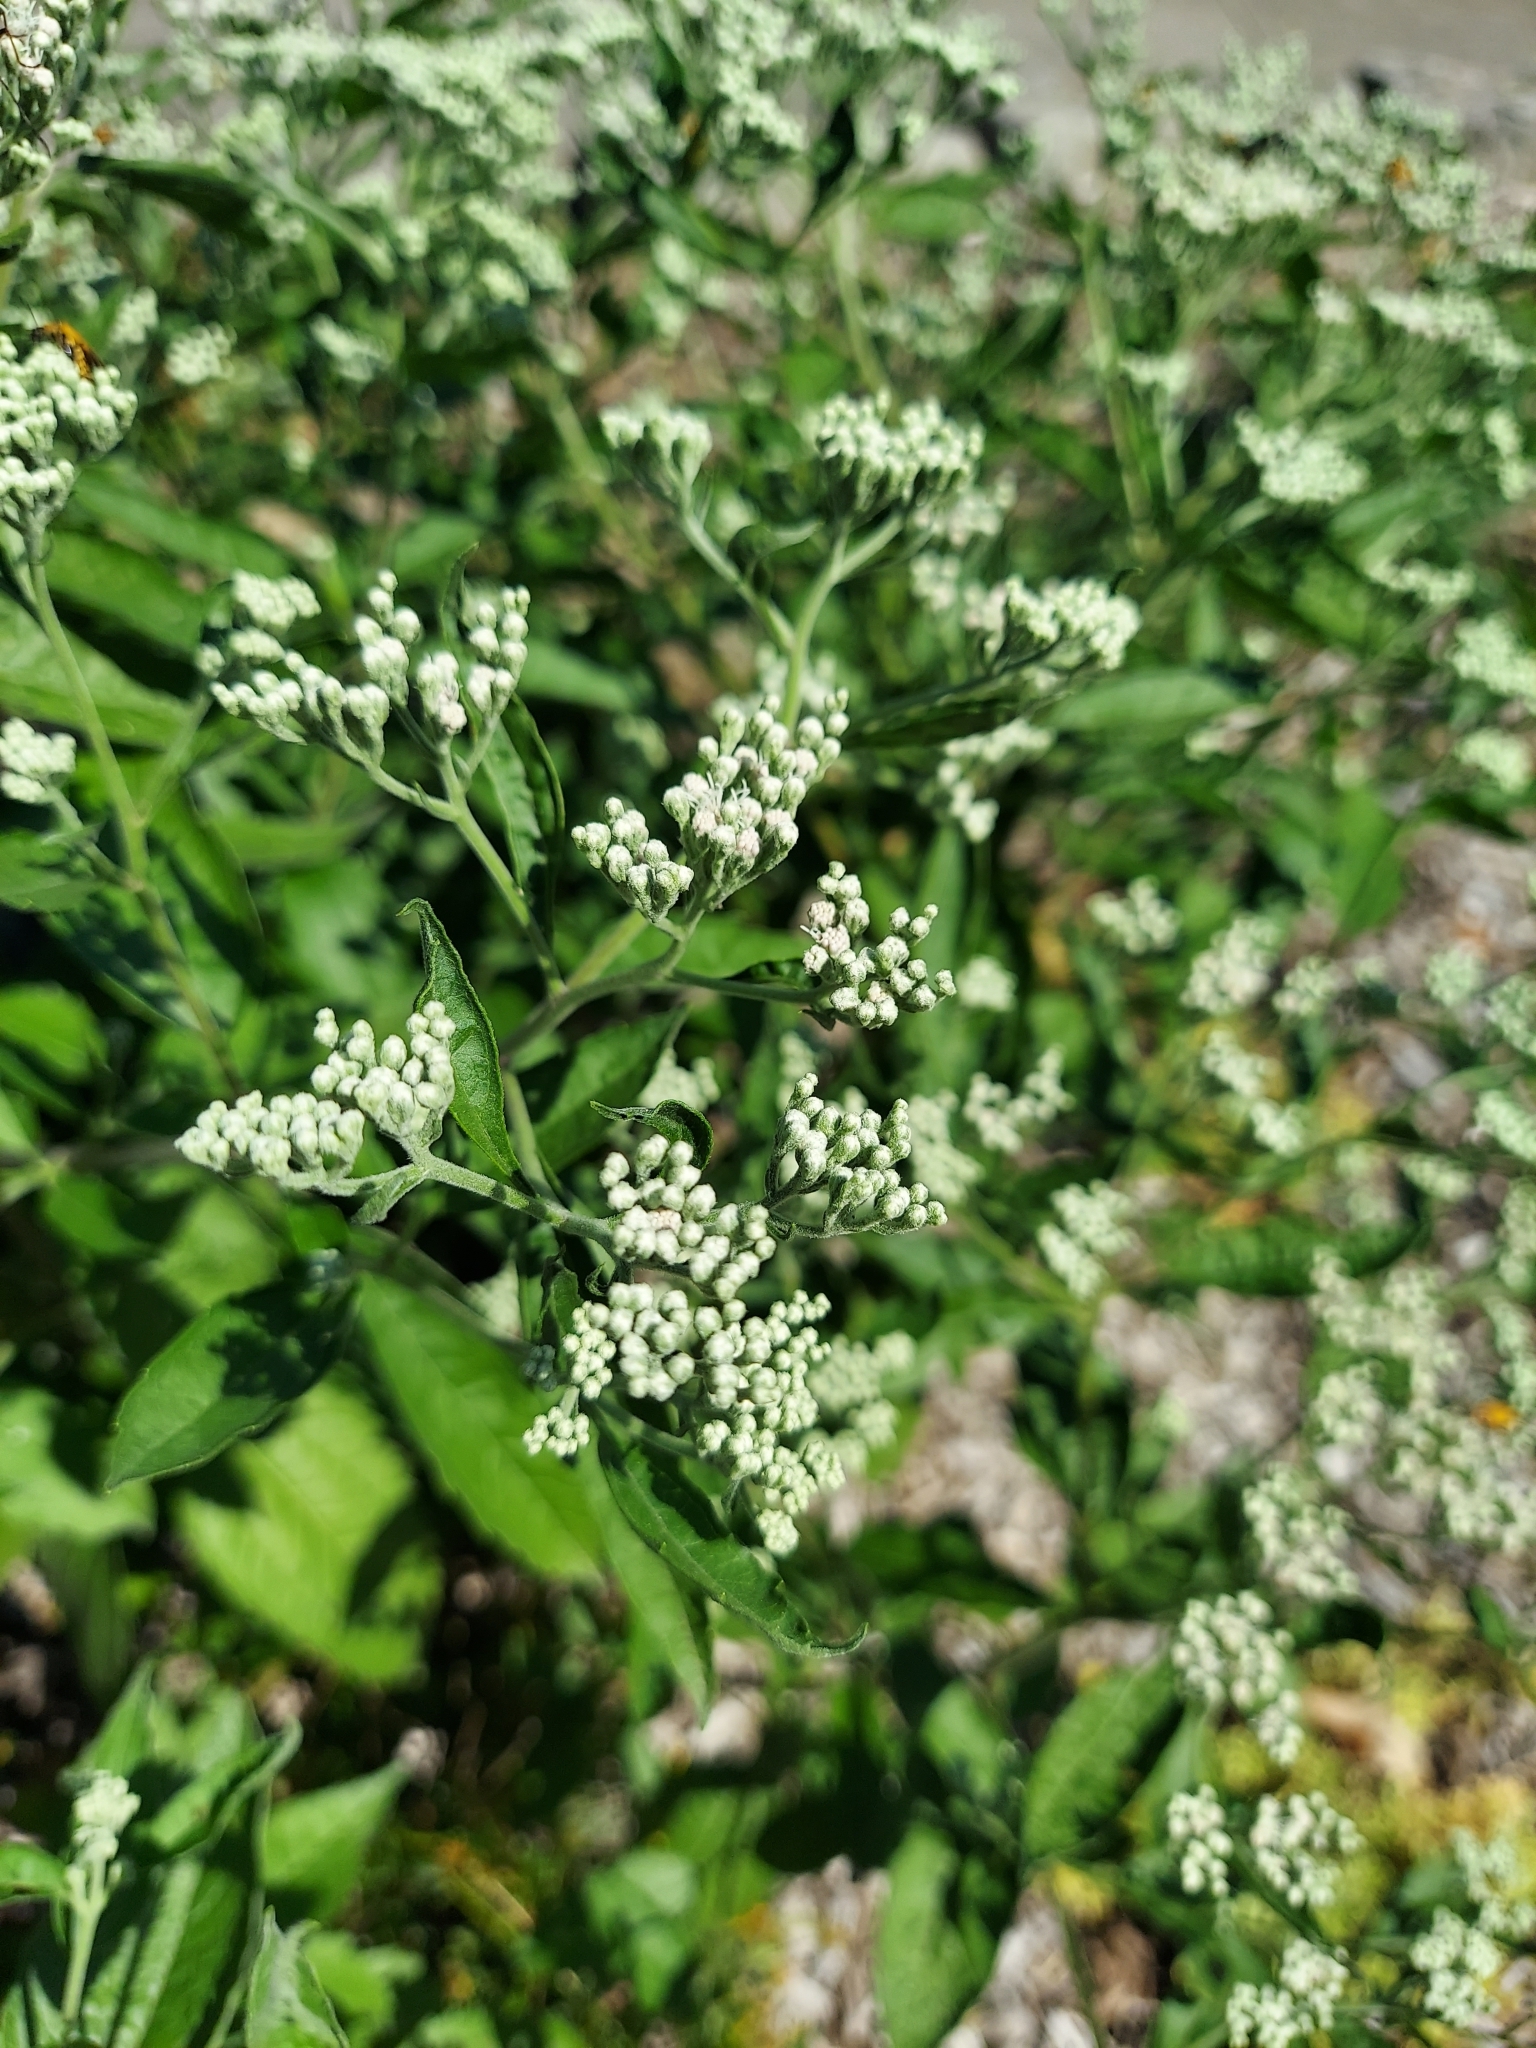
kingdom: Plantae
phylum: Tracheophyta
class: Magnoliopsida
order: Asterales
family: Asteraceae
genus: Eupatorium
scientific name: Eupatorium serotinum
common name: Late boneset
